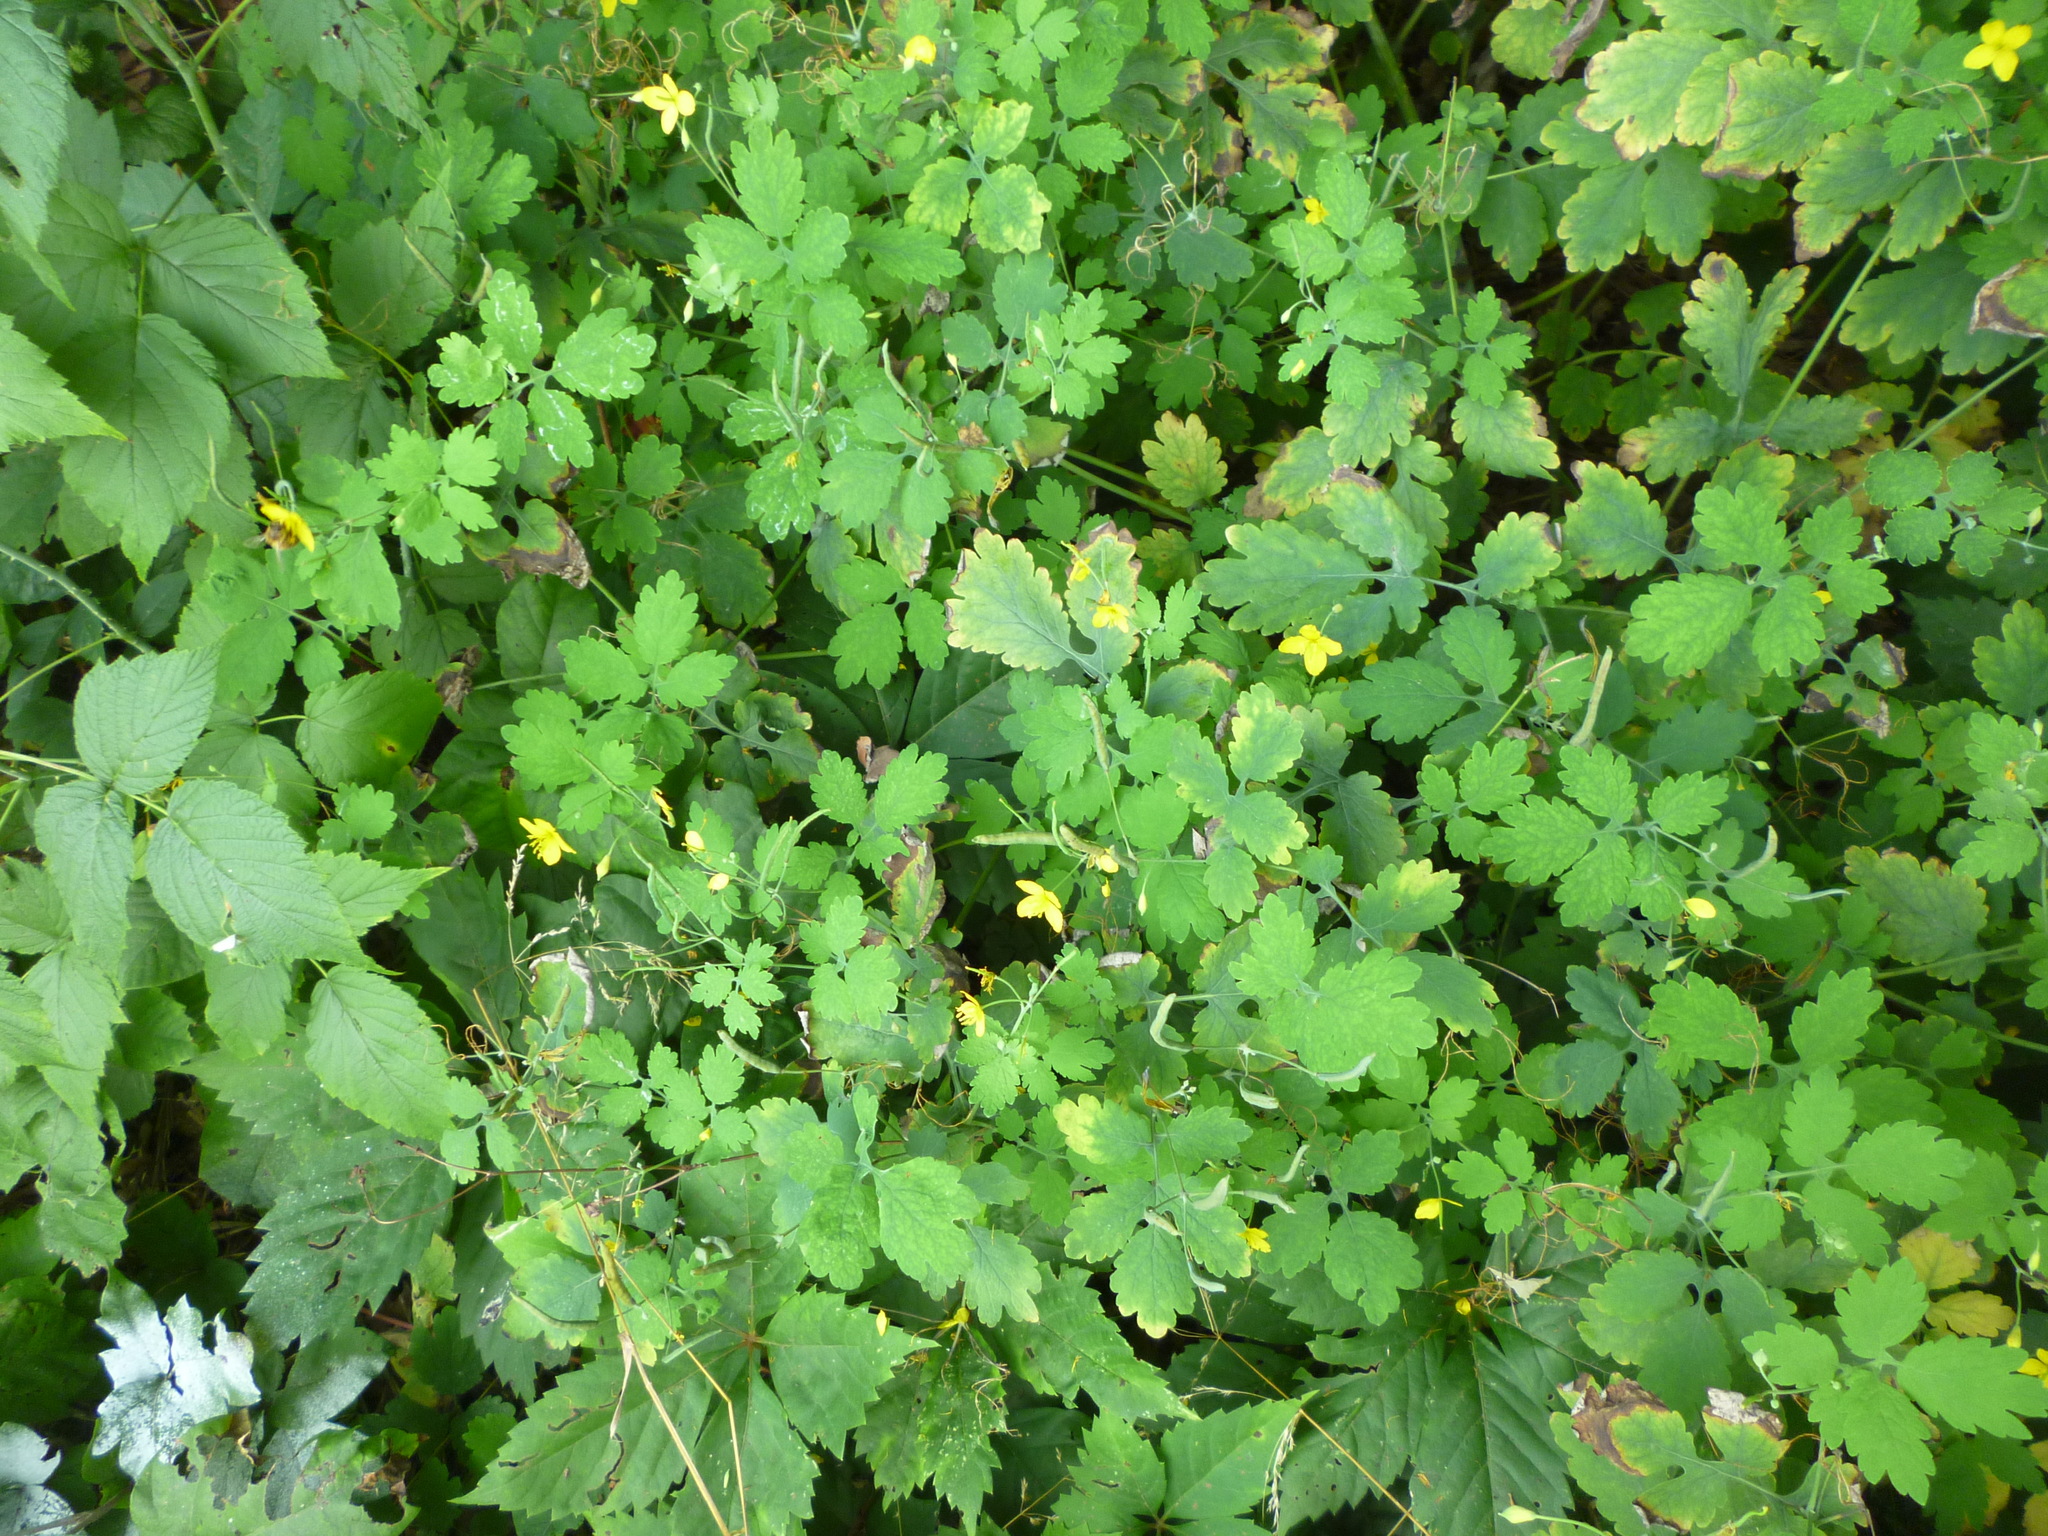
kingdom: Plantae
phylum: Tracheophyta
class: Magnoliopsida
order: Ranunculales
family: Papaveraceae
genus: Chelidonium
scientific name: Chelidonium majus
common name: Greater celandine
